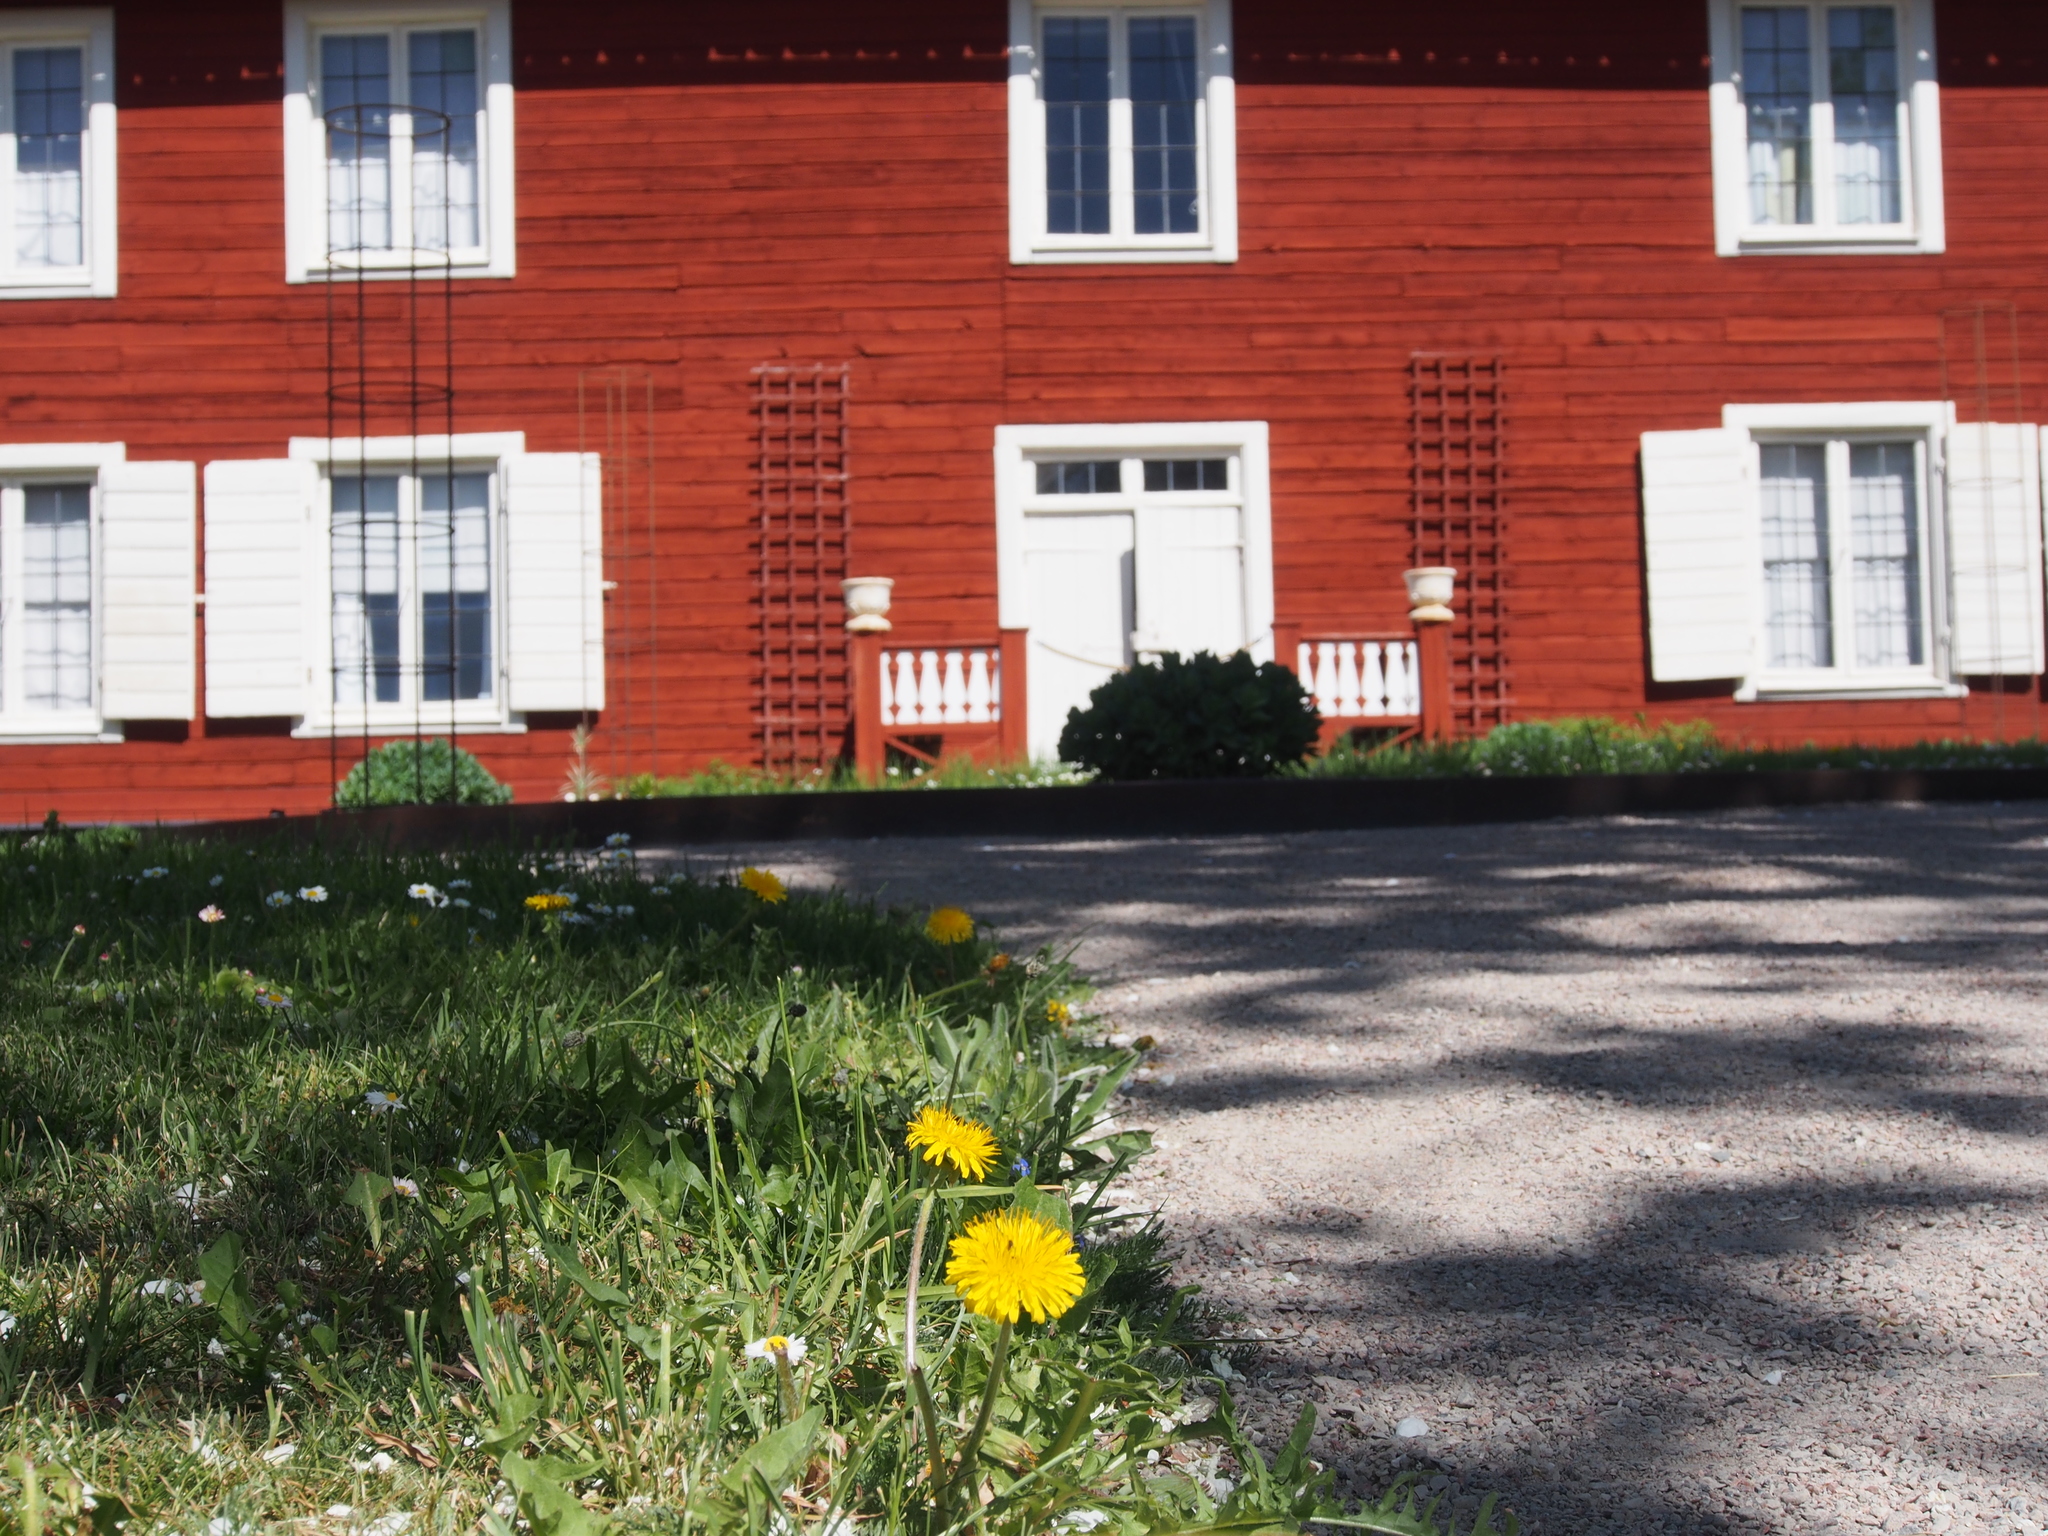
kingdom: Plantae
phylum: Tracheophyta
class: Magnoliopsida
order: Asterales
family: Asteraceae
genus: Taraxacum
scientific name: Taraxacum officinale
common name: Common dandelion
